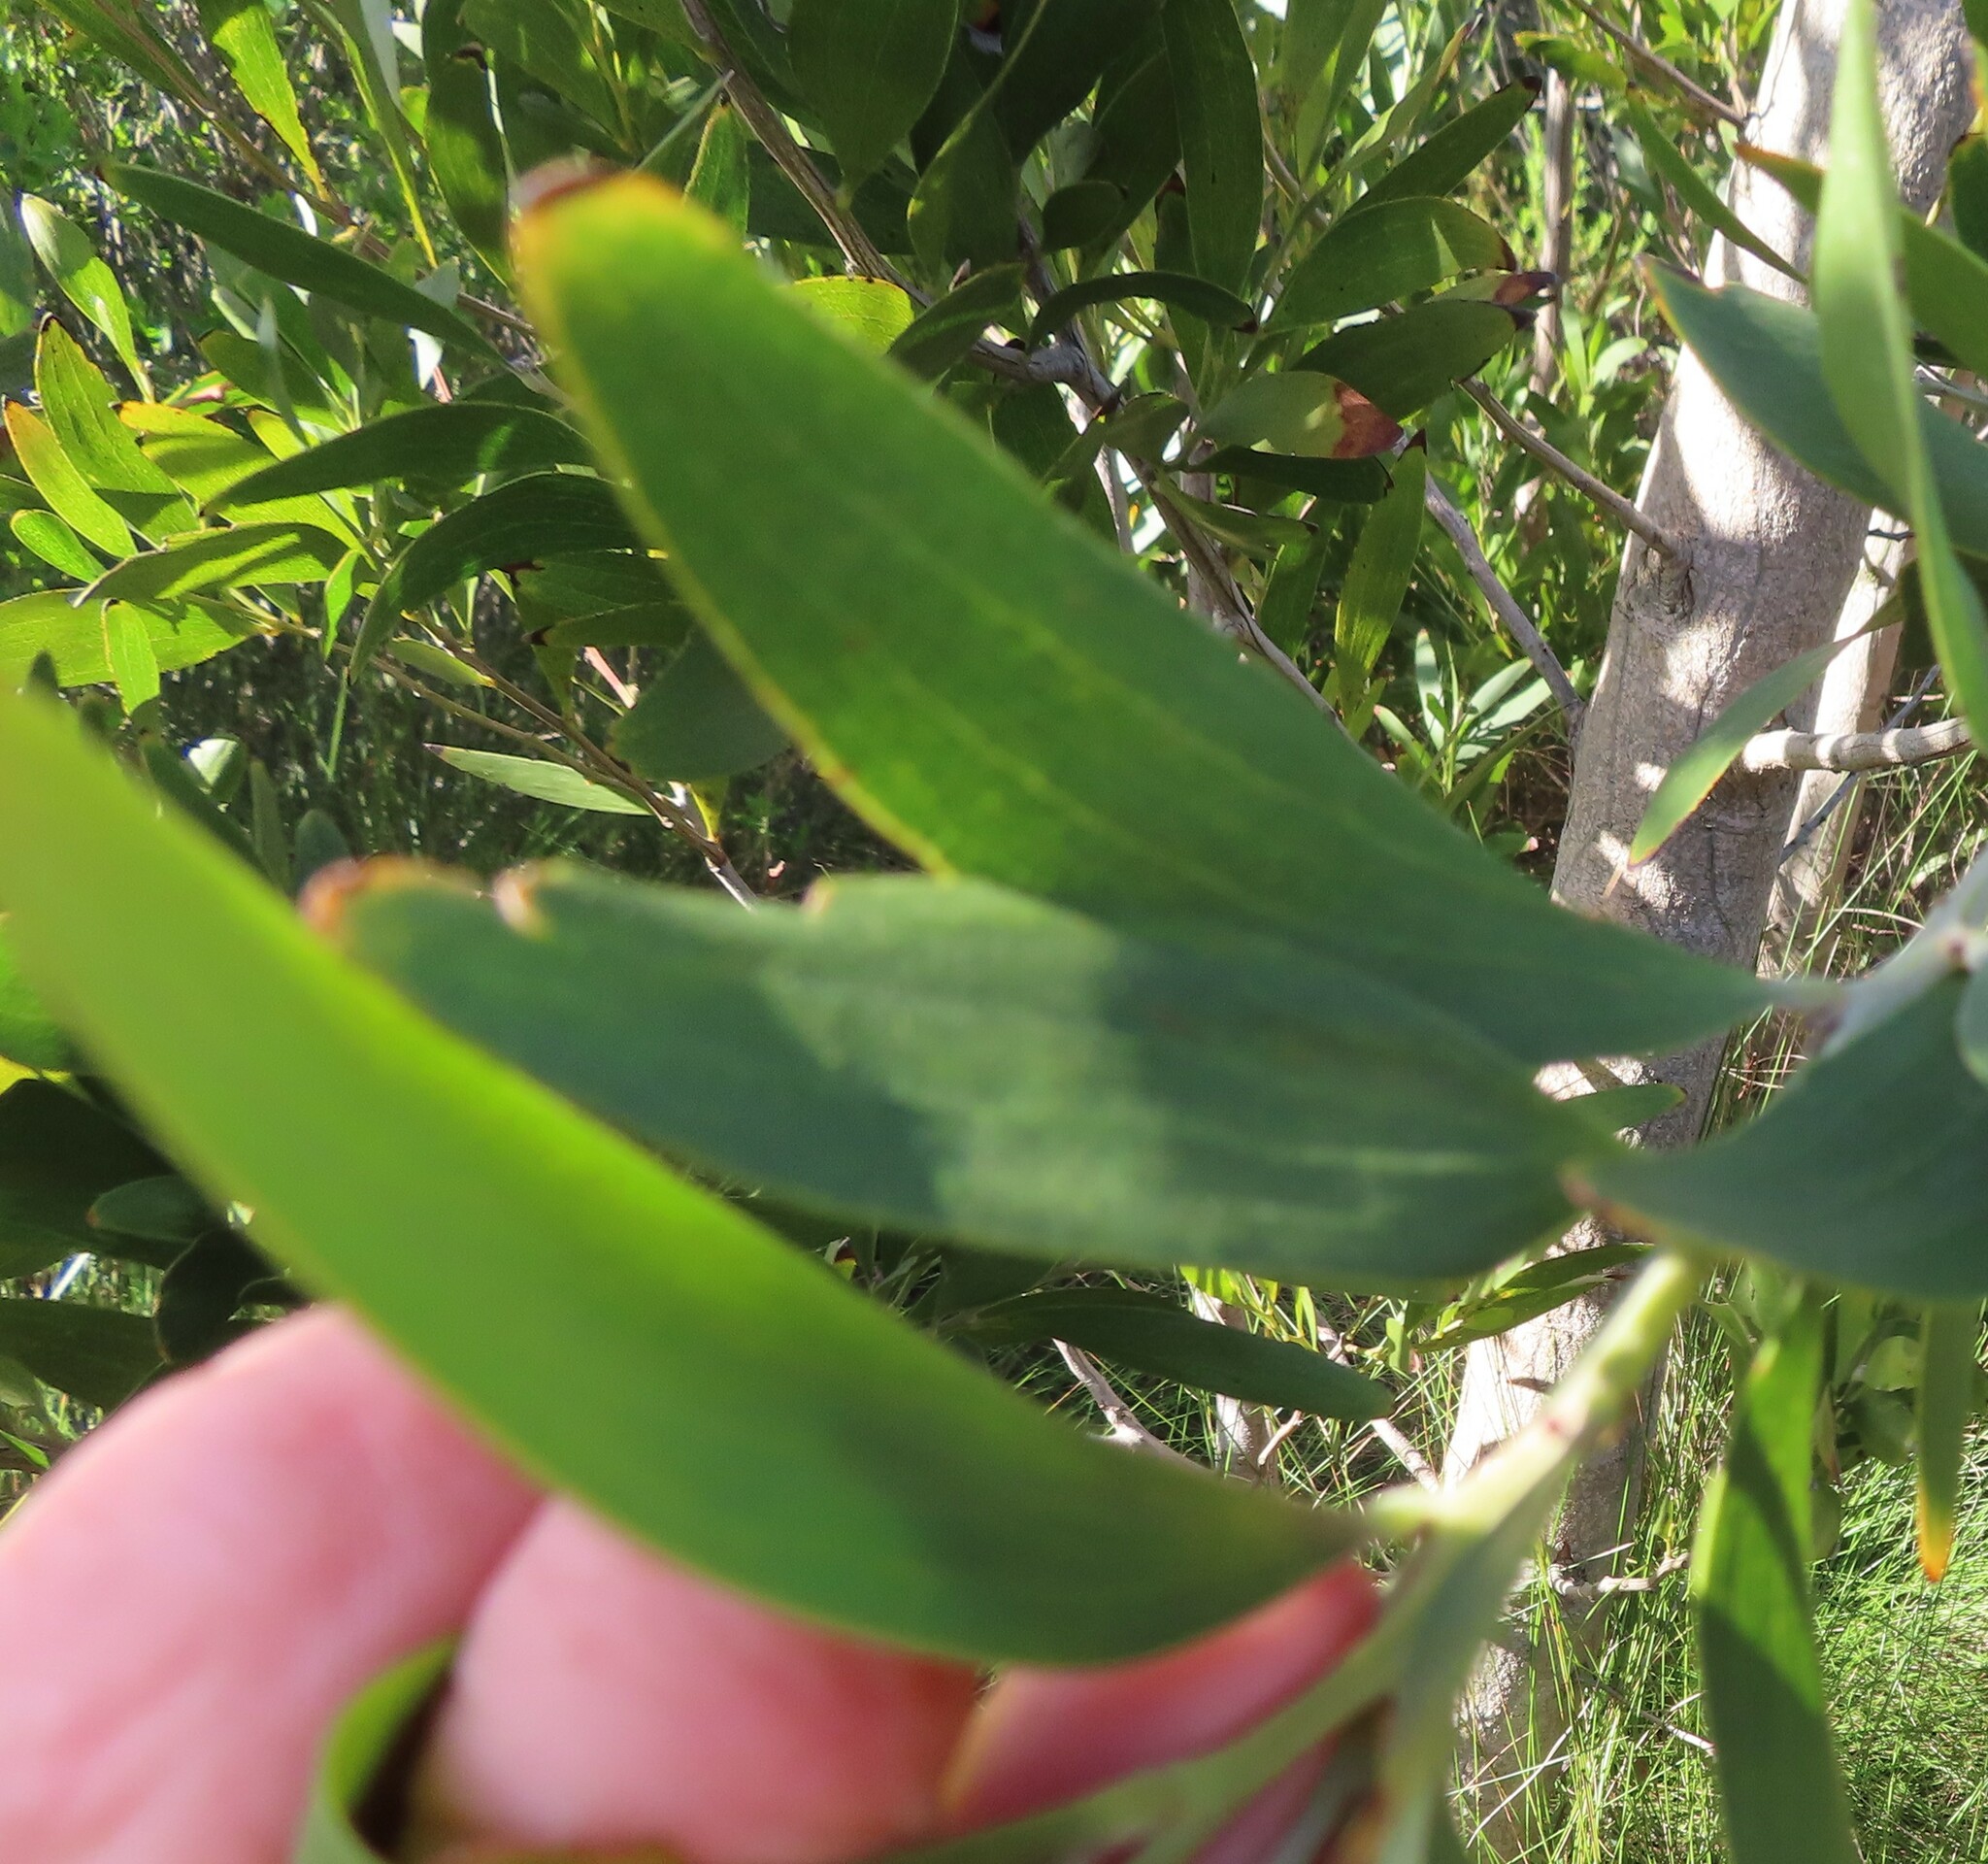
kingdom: Plantae
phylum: Tracheophyta
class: Magnoliopsida
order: Fabales
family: Fabaceae
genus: Acacia
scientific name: Acacia longifolia
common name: Sydney golden wattle
